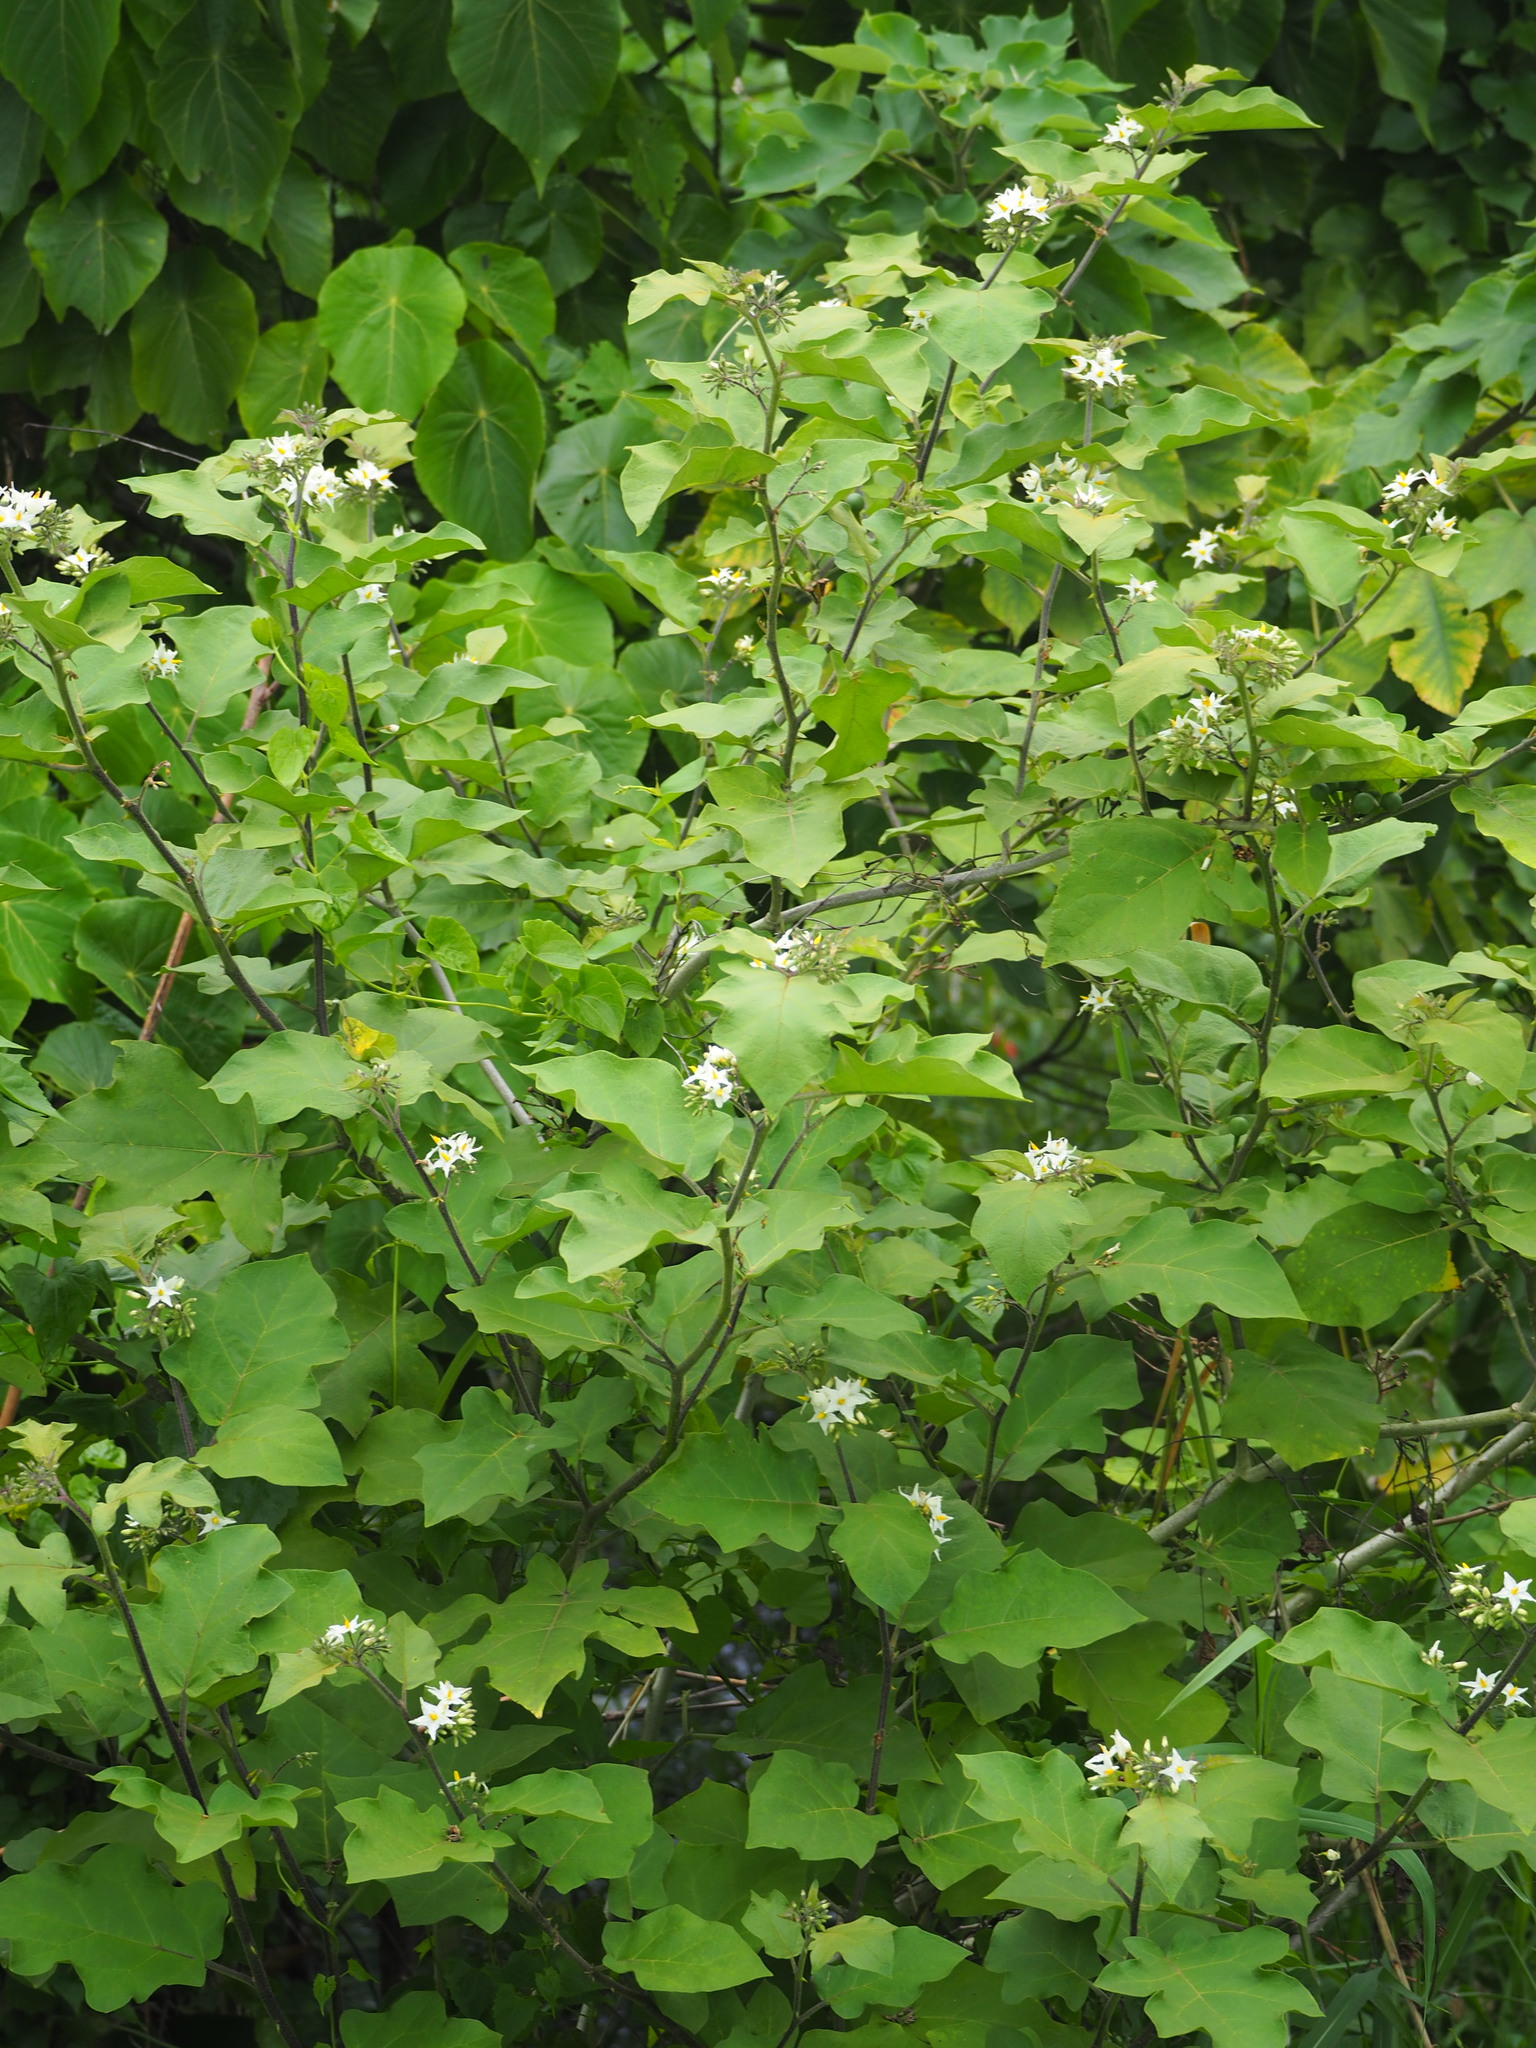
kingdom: Plantae
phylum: Tracheophyta
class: Magnoliopsida
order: Solanales
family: Solanaceae
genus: Solanum
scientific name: Solanum torvum
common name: Turkey berry
